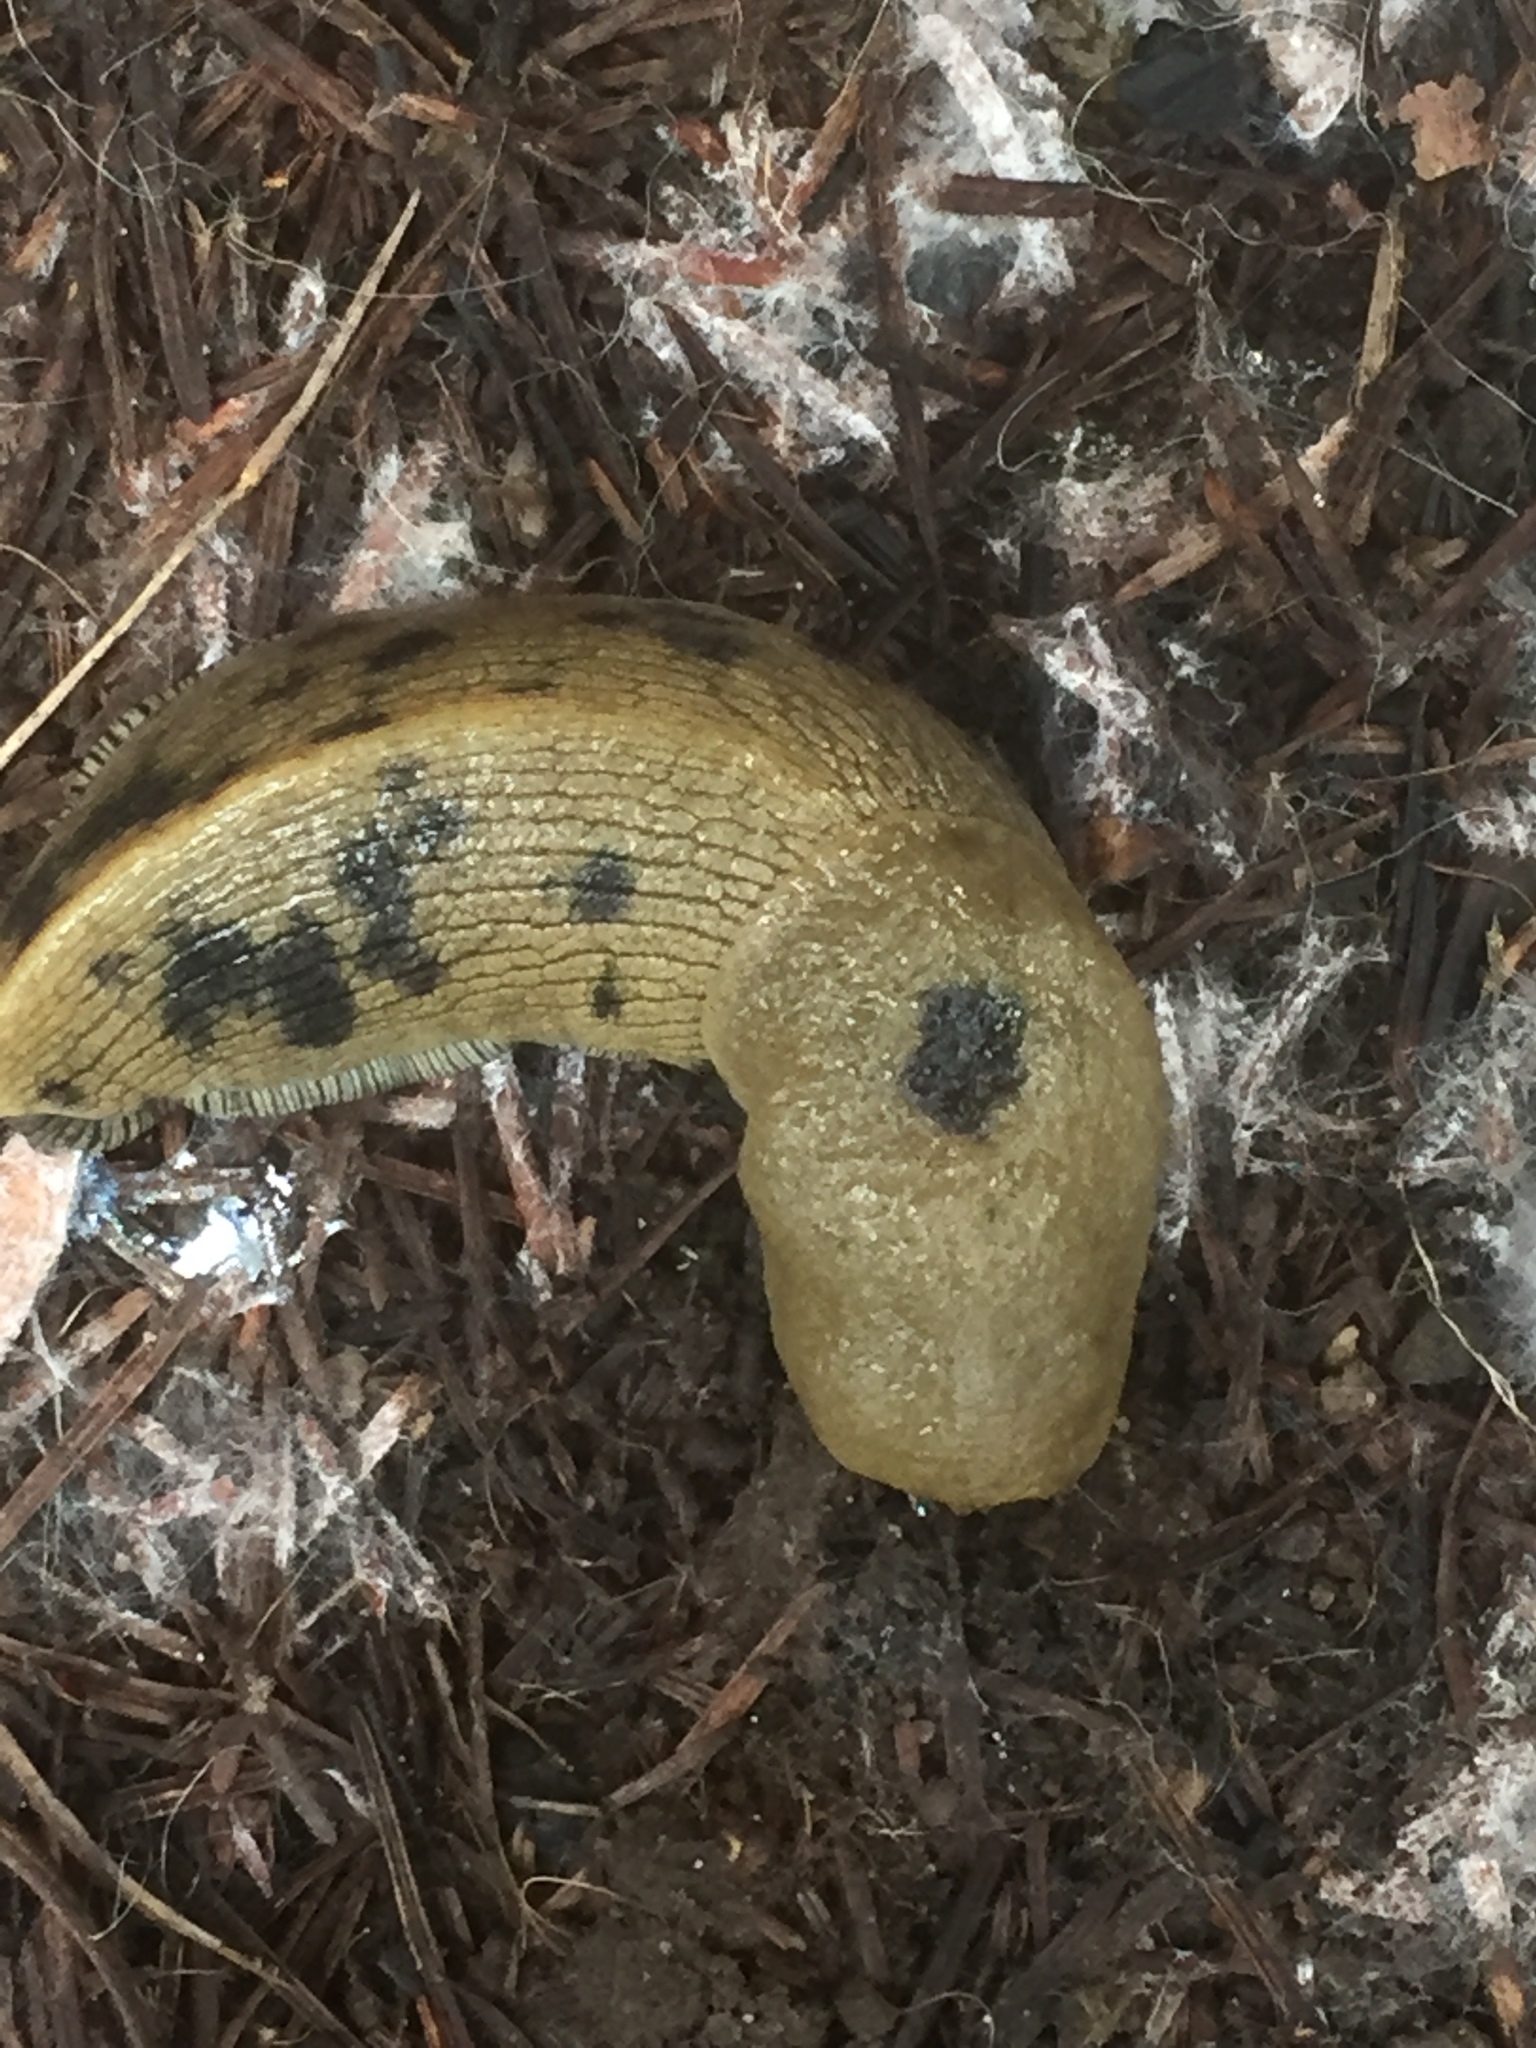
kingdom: Animalia
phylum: Mollusca
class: Gastropoda
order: Stylommatophora
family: Ariolimacidae
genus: Ariolimax
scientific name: Ariolimax buttoni
